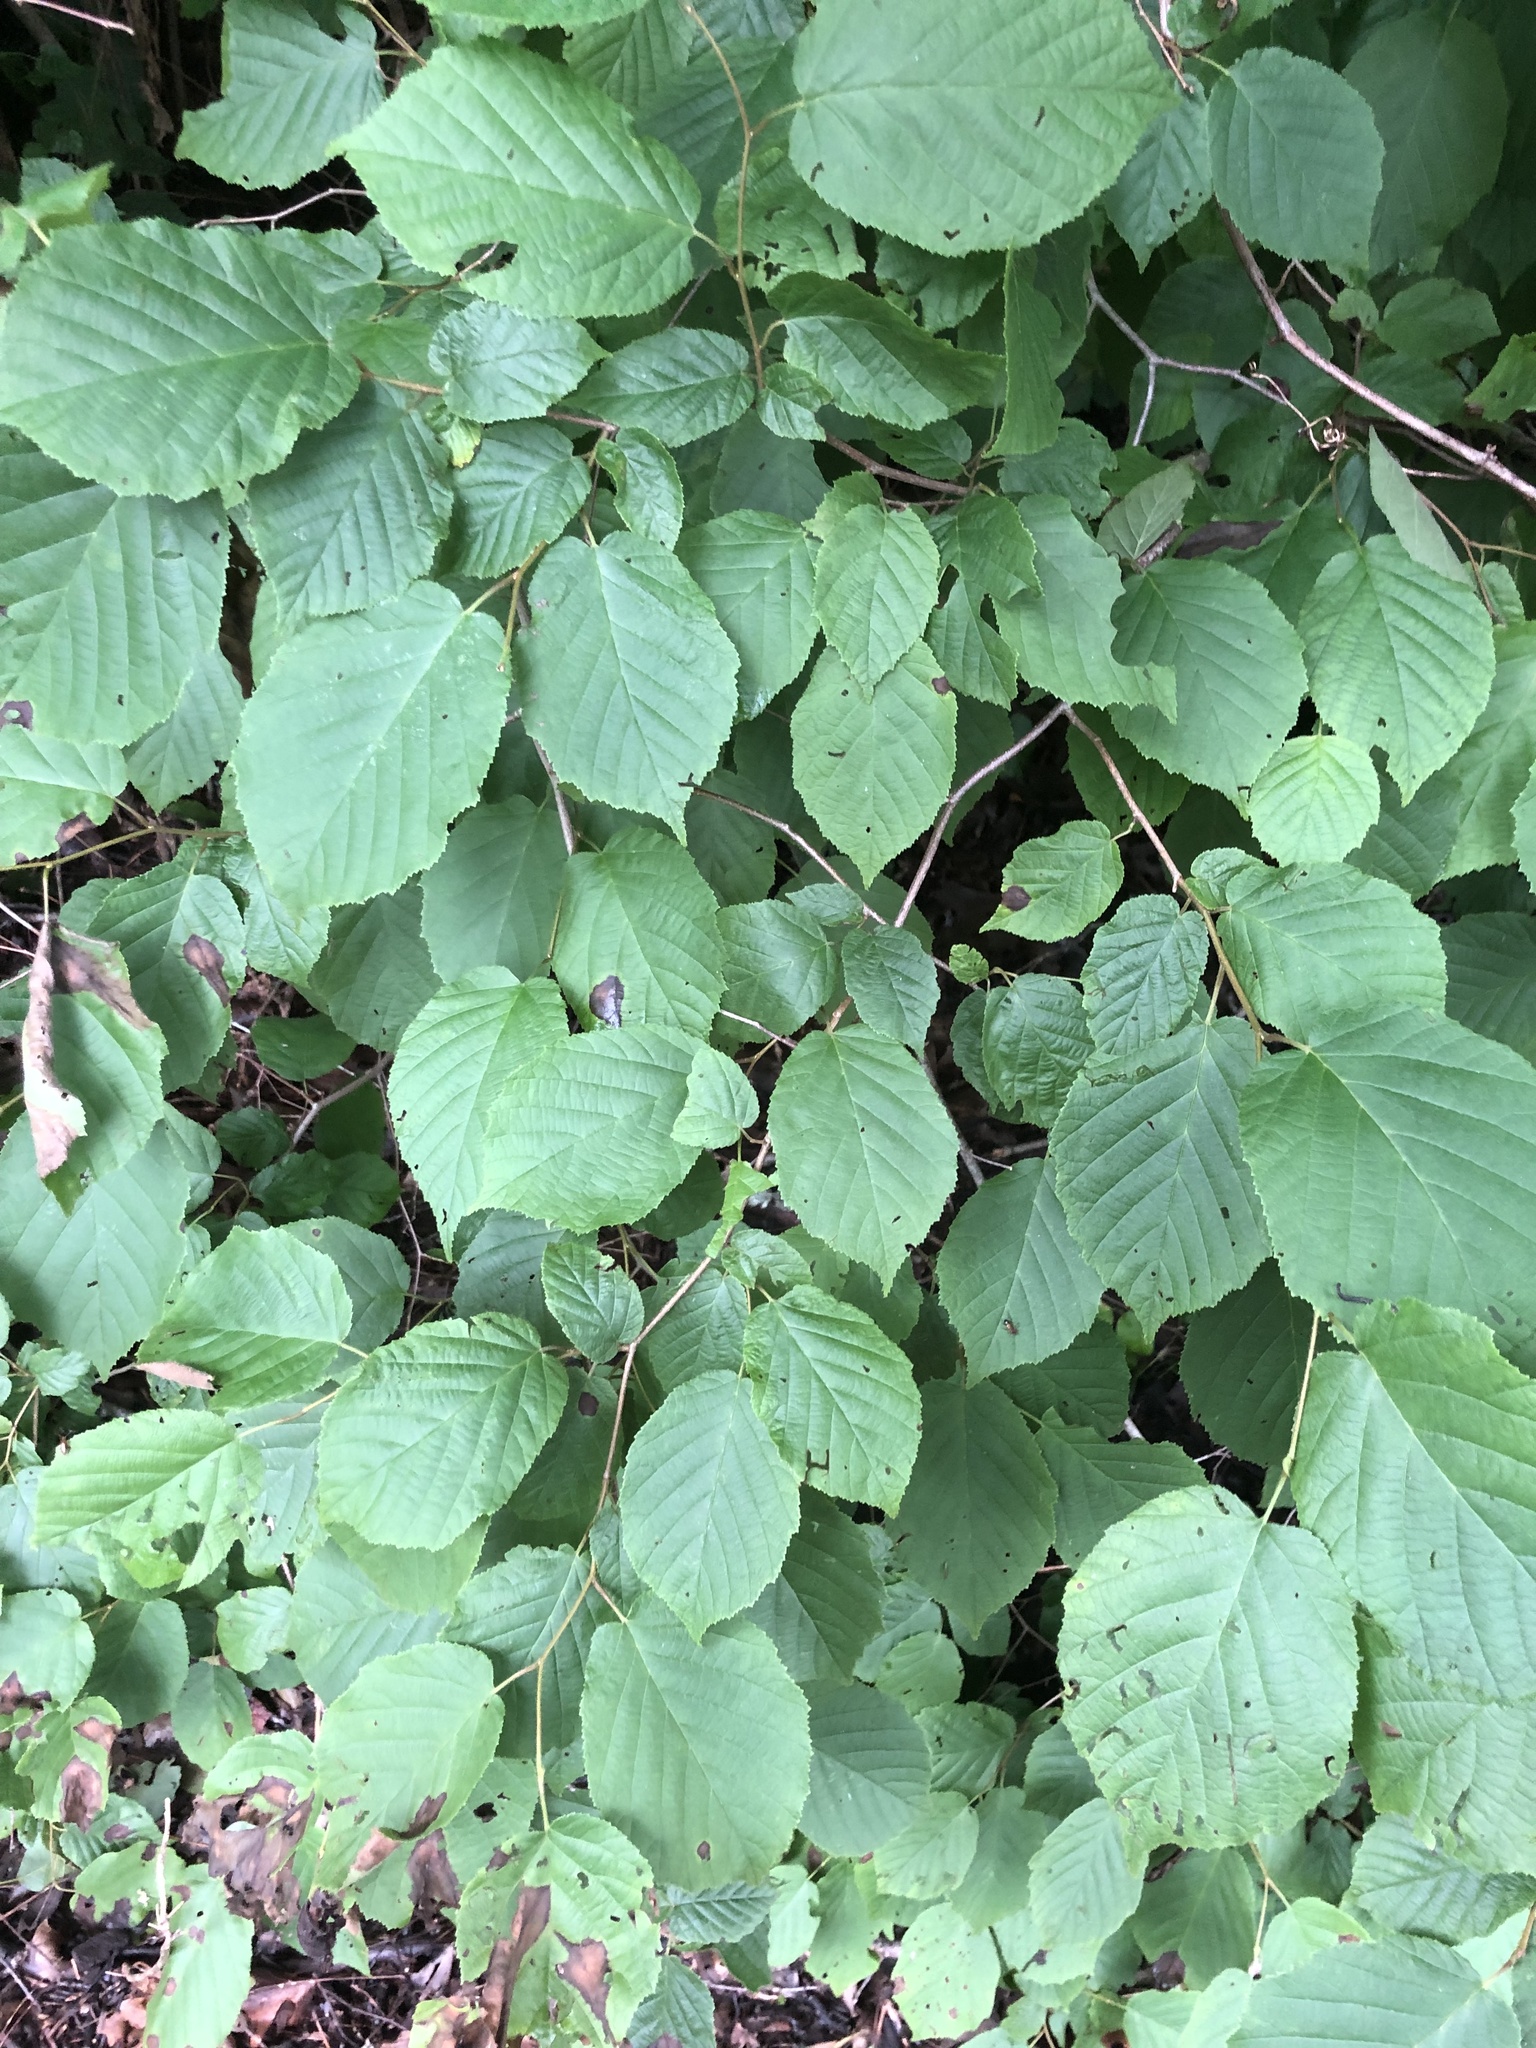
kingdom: Plantae
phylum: Tracheophyta
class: Magnoliopsida
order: Fagales
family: Betulaceae
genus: Corylus
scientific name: Corylus americana
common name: American hazel
